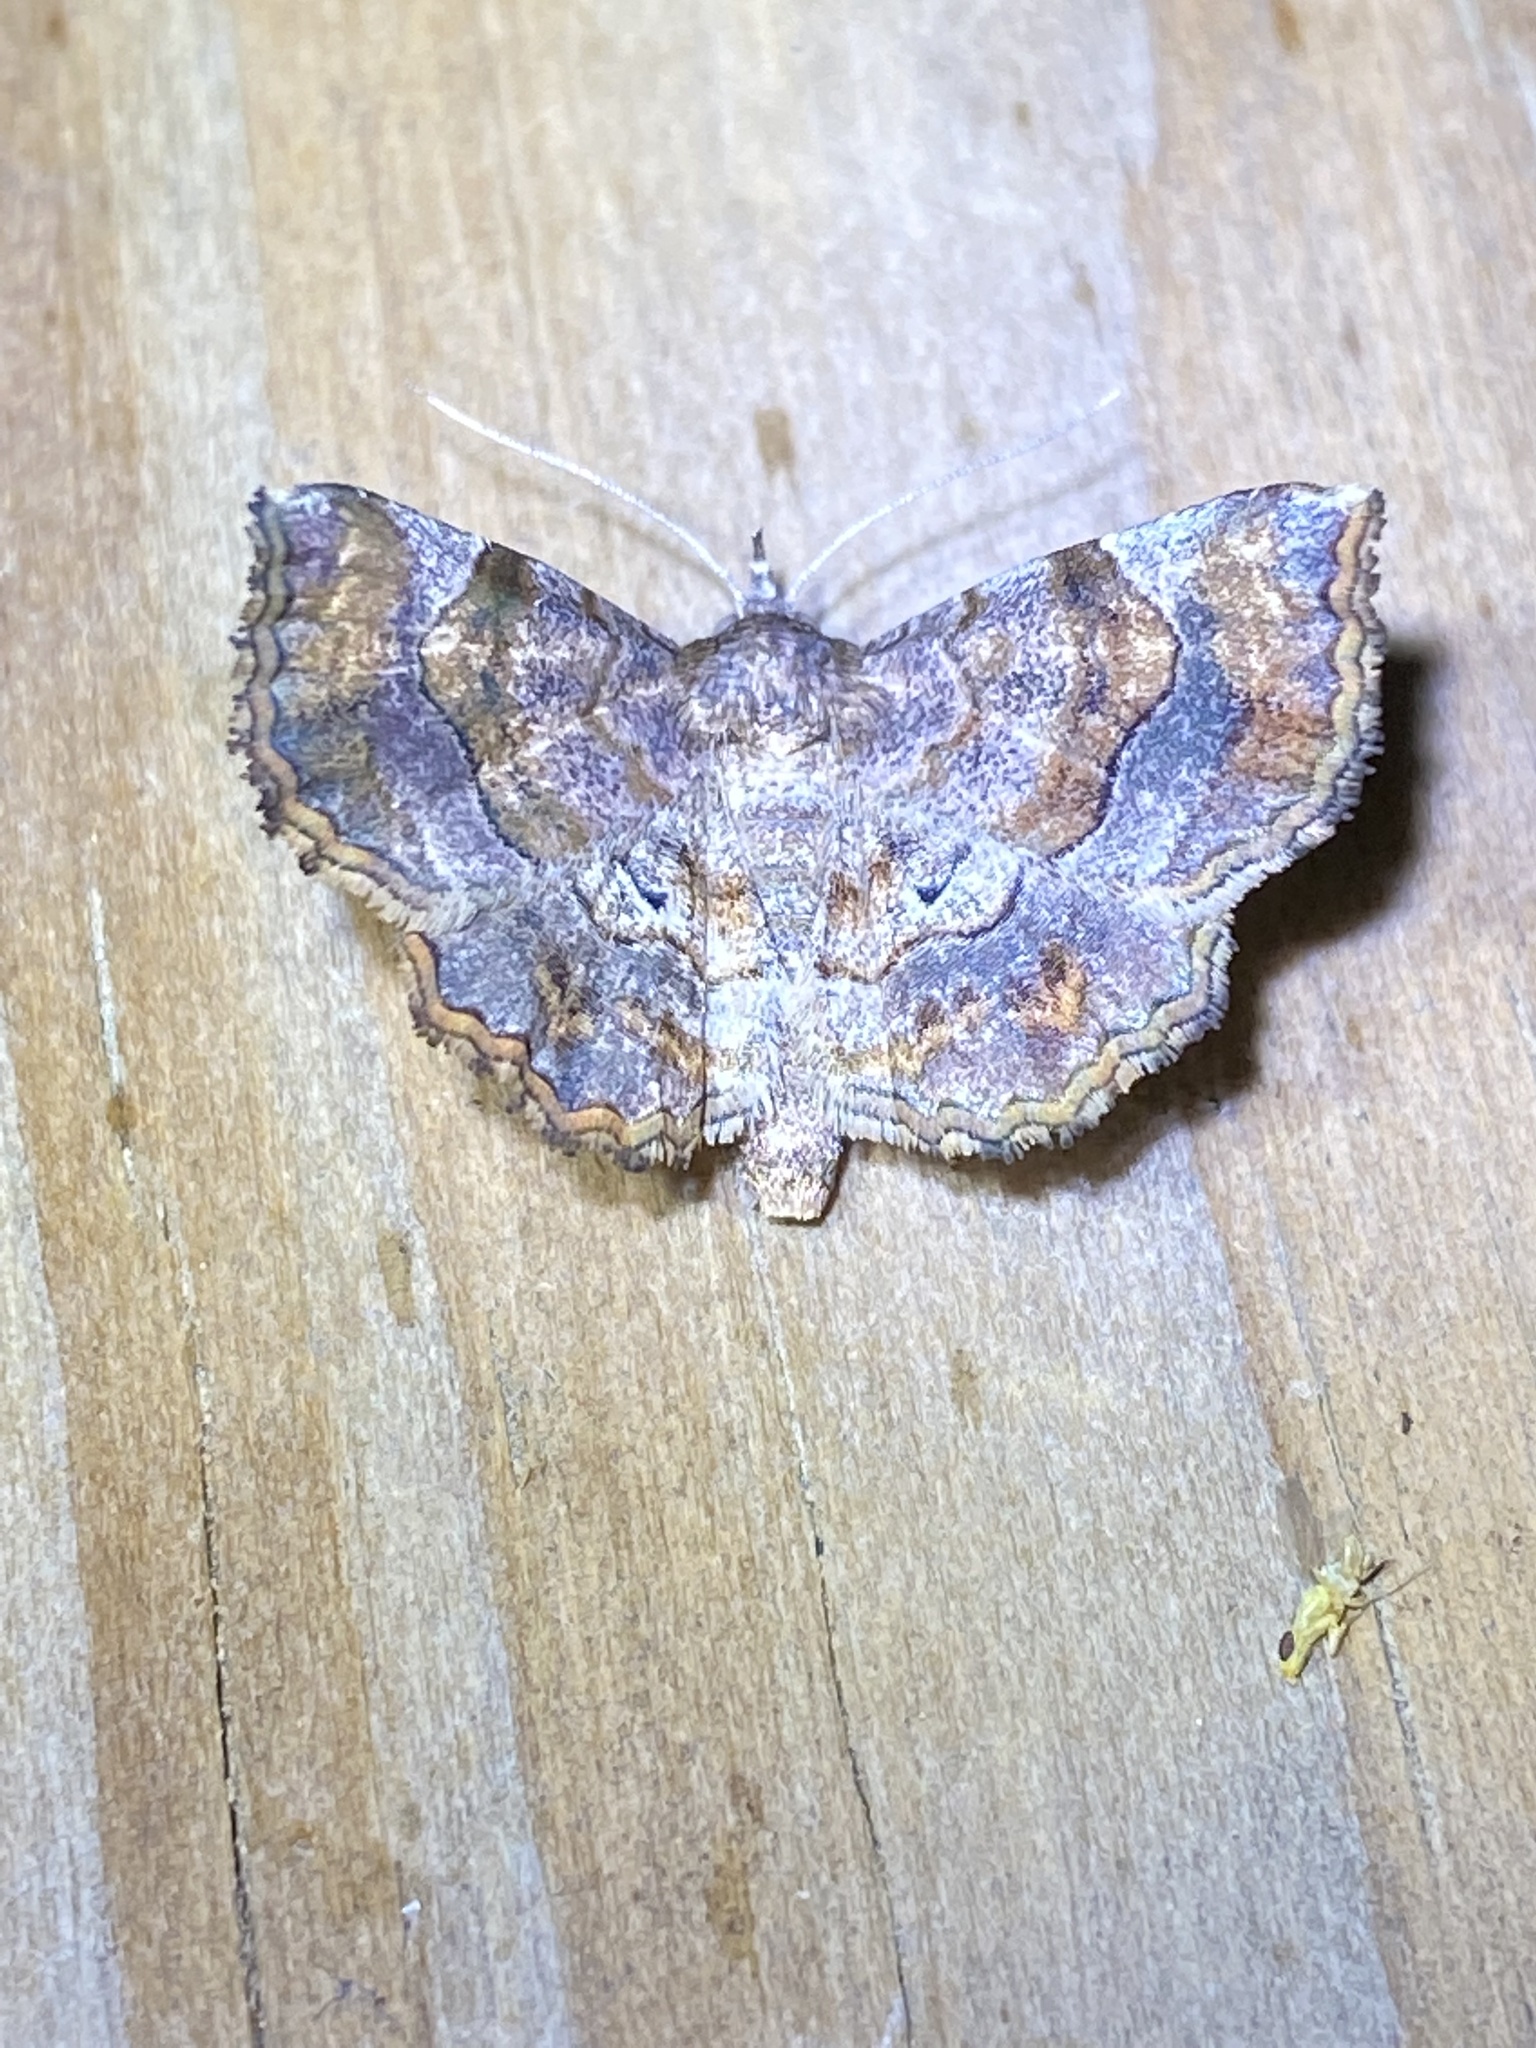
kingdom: Animalia
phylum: Arthropoda
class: Insecta
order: Lepidoptera
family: Erebidae
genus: Pangrapta
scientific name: Pangrapta decoralis
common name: Decorated owlet
